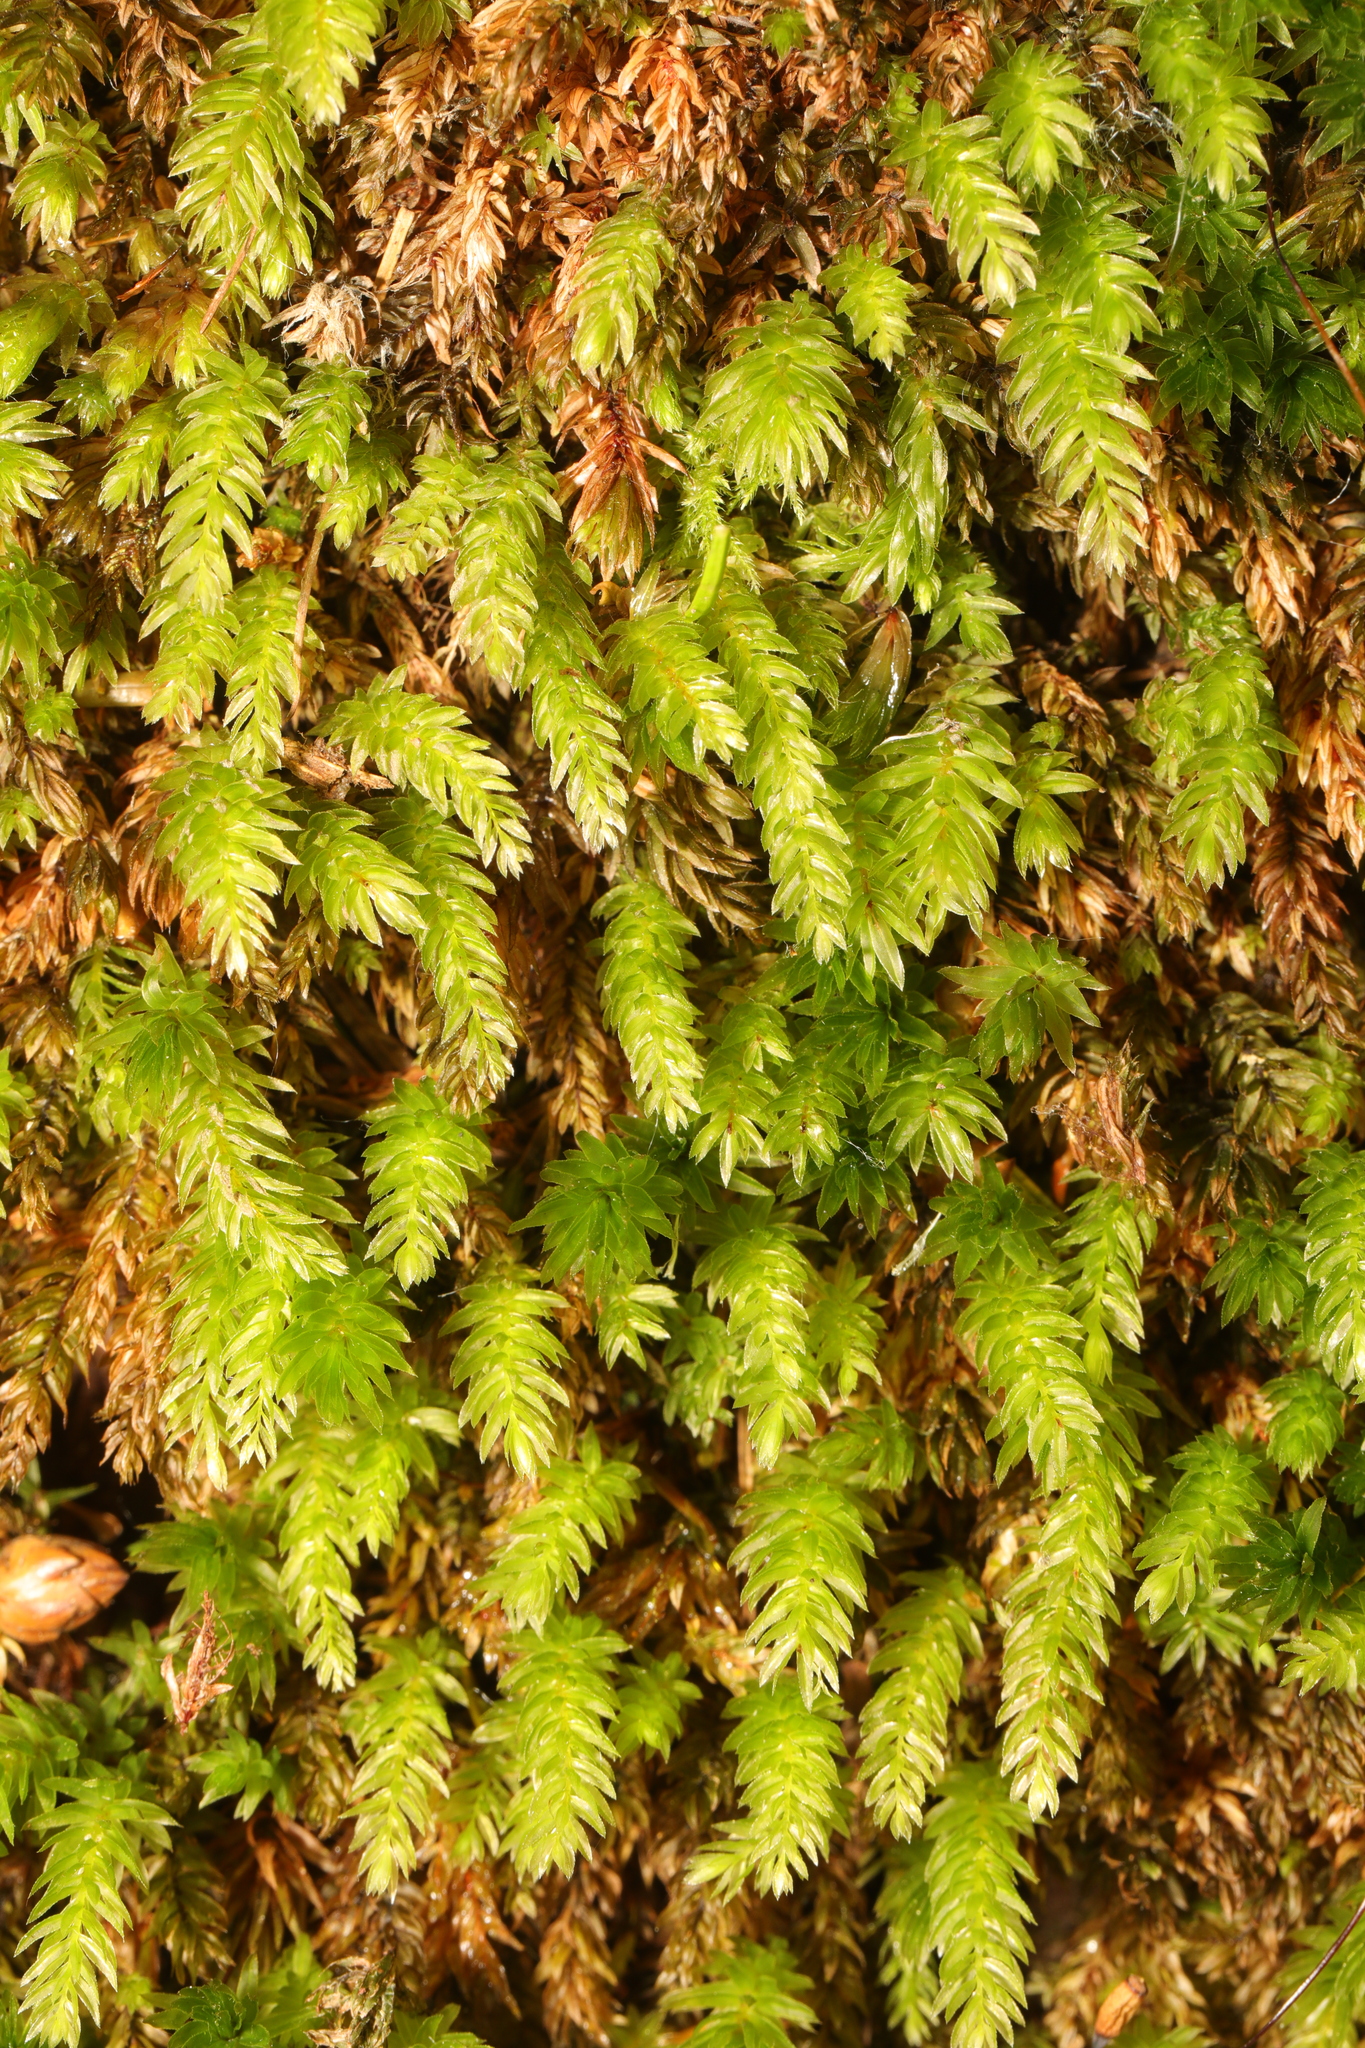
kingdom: Plantae
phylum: Bryophyta
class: Bryopsida
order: Bryales
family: Mniaceae
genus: Mnium
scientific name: Mnium hornum
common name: Swan's-neck leafy moss
